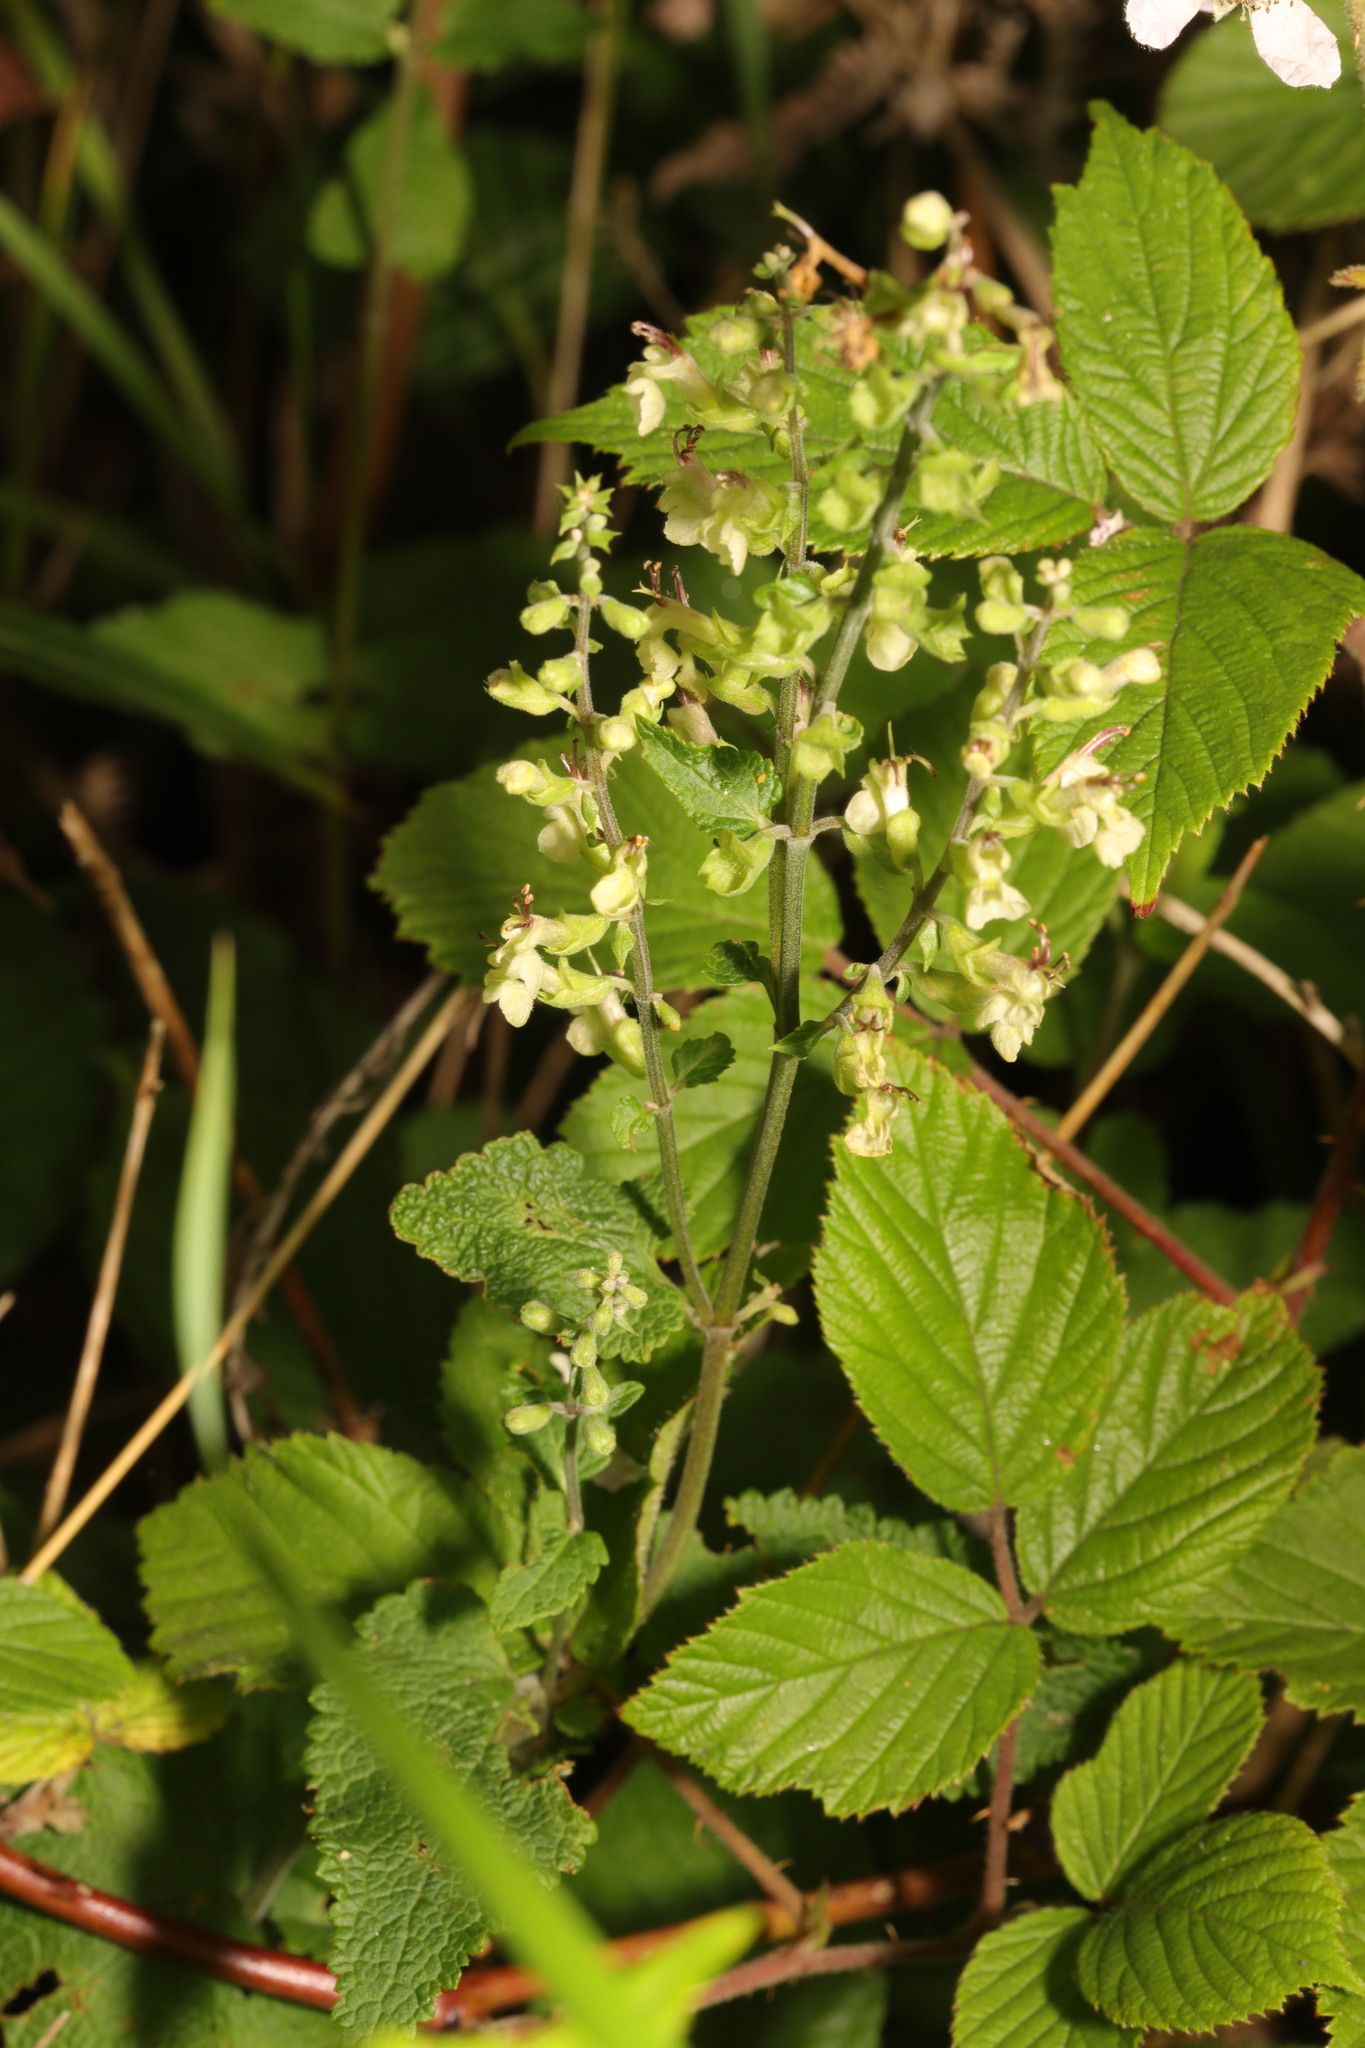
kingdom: Plantae
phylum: Tracheophyta
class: Magnoliopsida
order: Lamiales
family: Lamiaceae
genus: Teucrium
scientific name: Teucrium scorodonia
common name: Woodland germander
